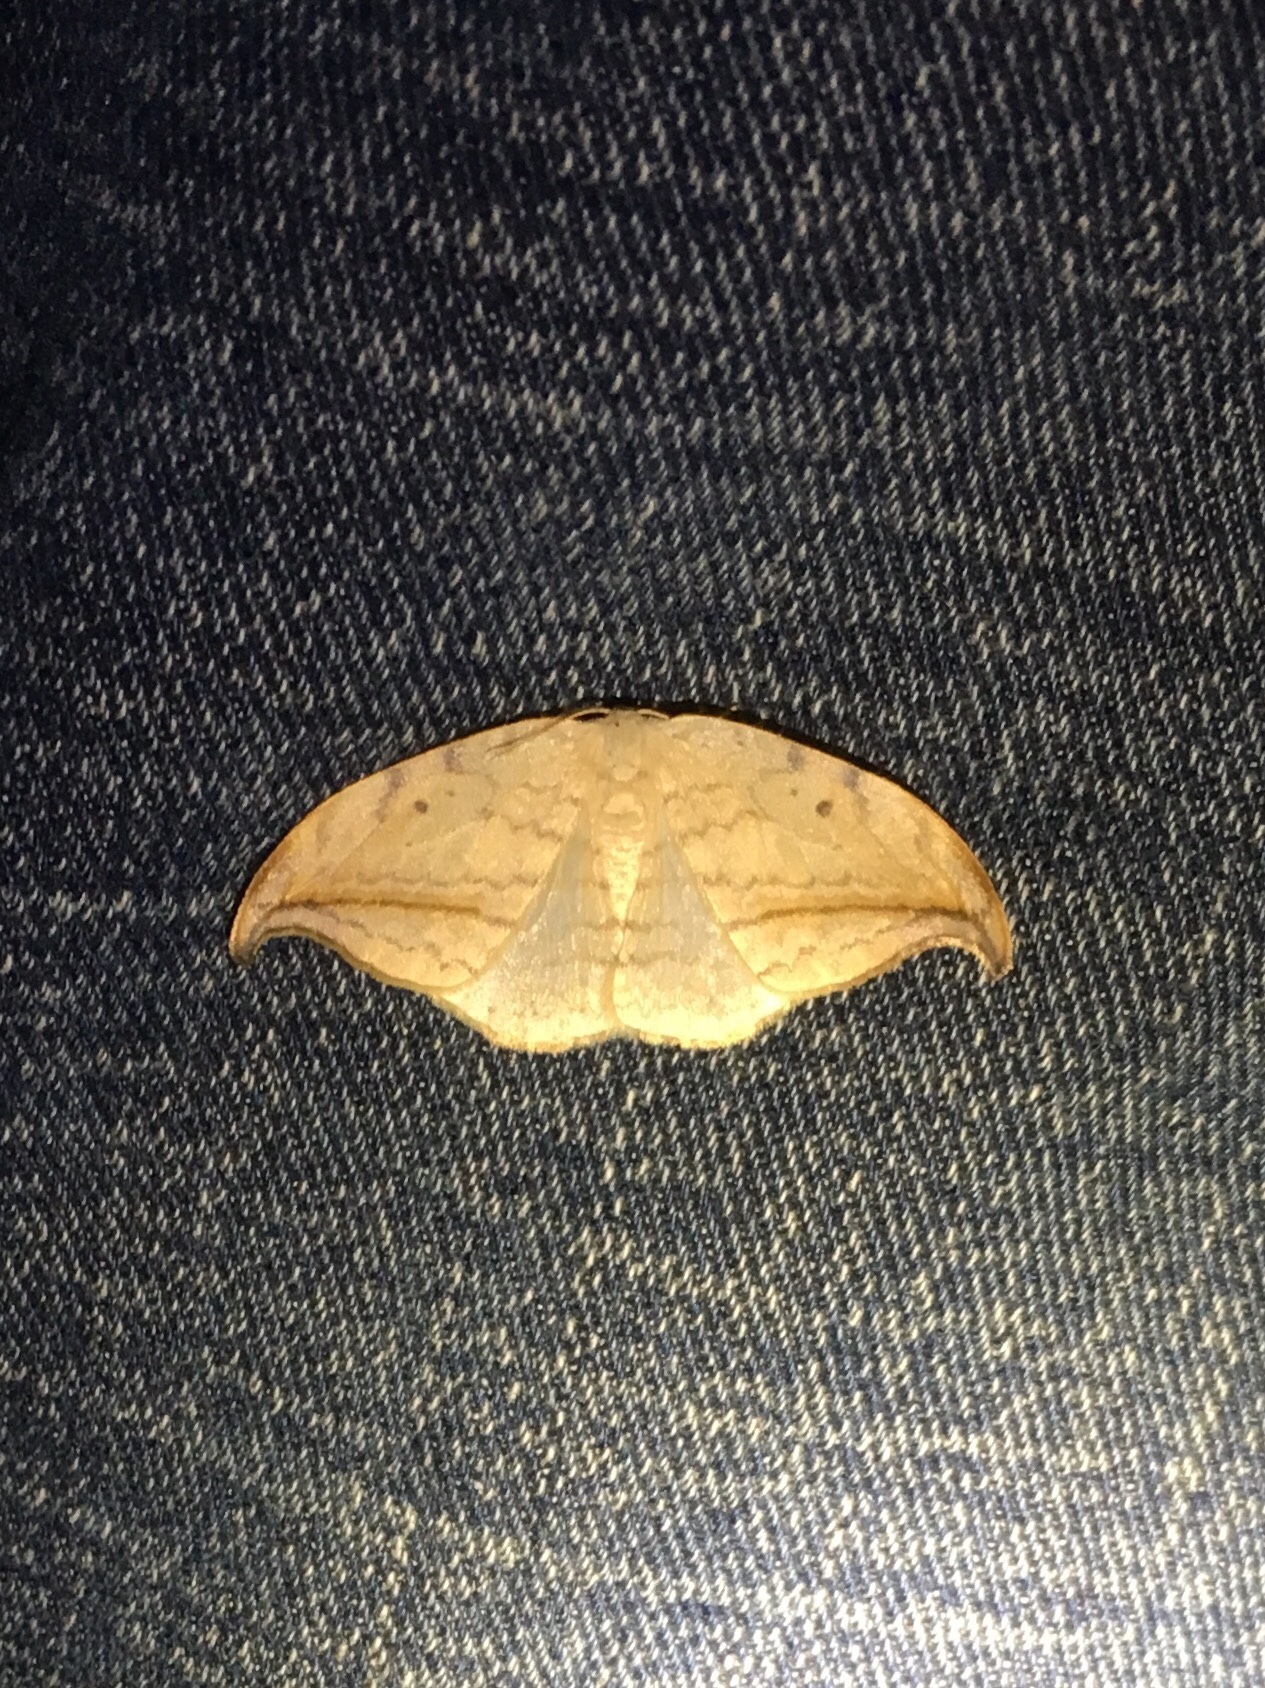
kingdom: Animalia
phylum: Arthropoda
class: Insecta
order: Lepidoptera
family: Drepanidae
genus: Drepana
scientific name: Drepana arcuata
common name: Arched hooktip moth
